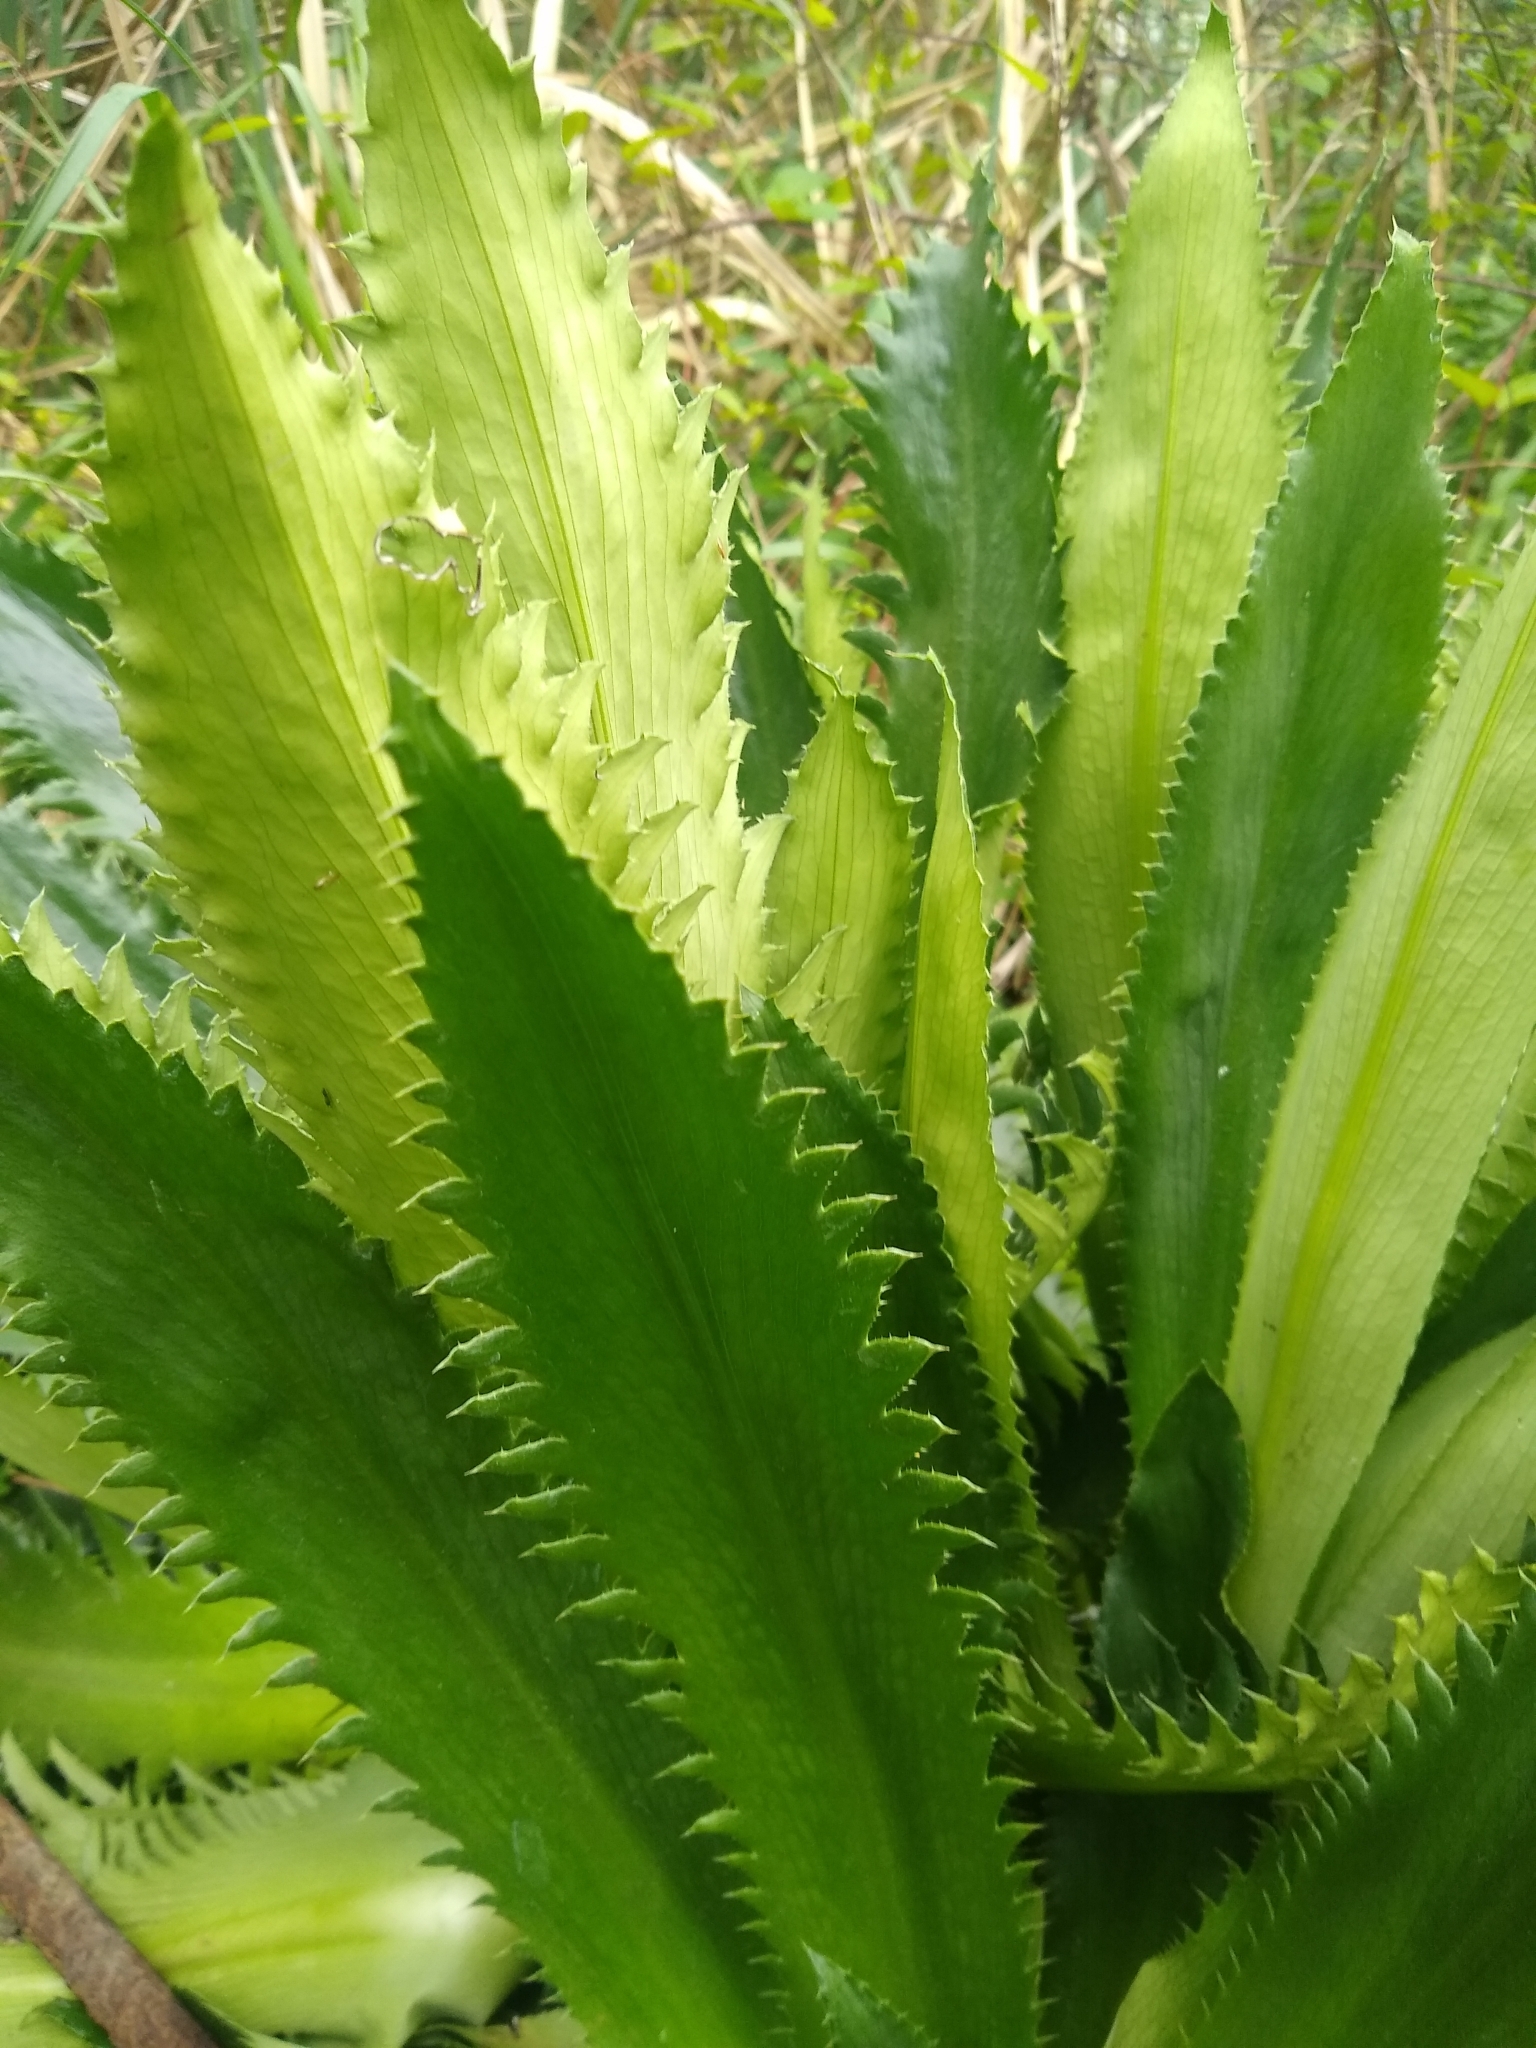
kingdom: Plantae
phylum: Tracheophyta
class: Magnoliopsida
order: Apiales
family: Apiaceae
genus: Eryngium
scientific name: Eryngium serra
